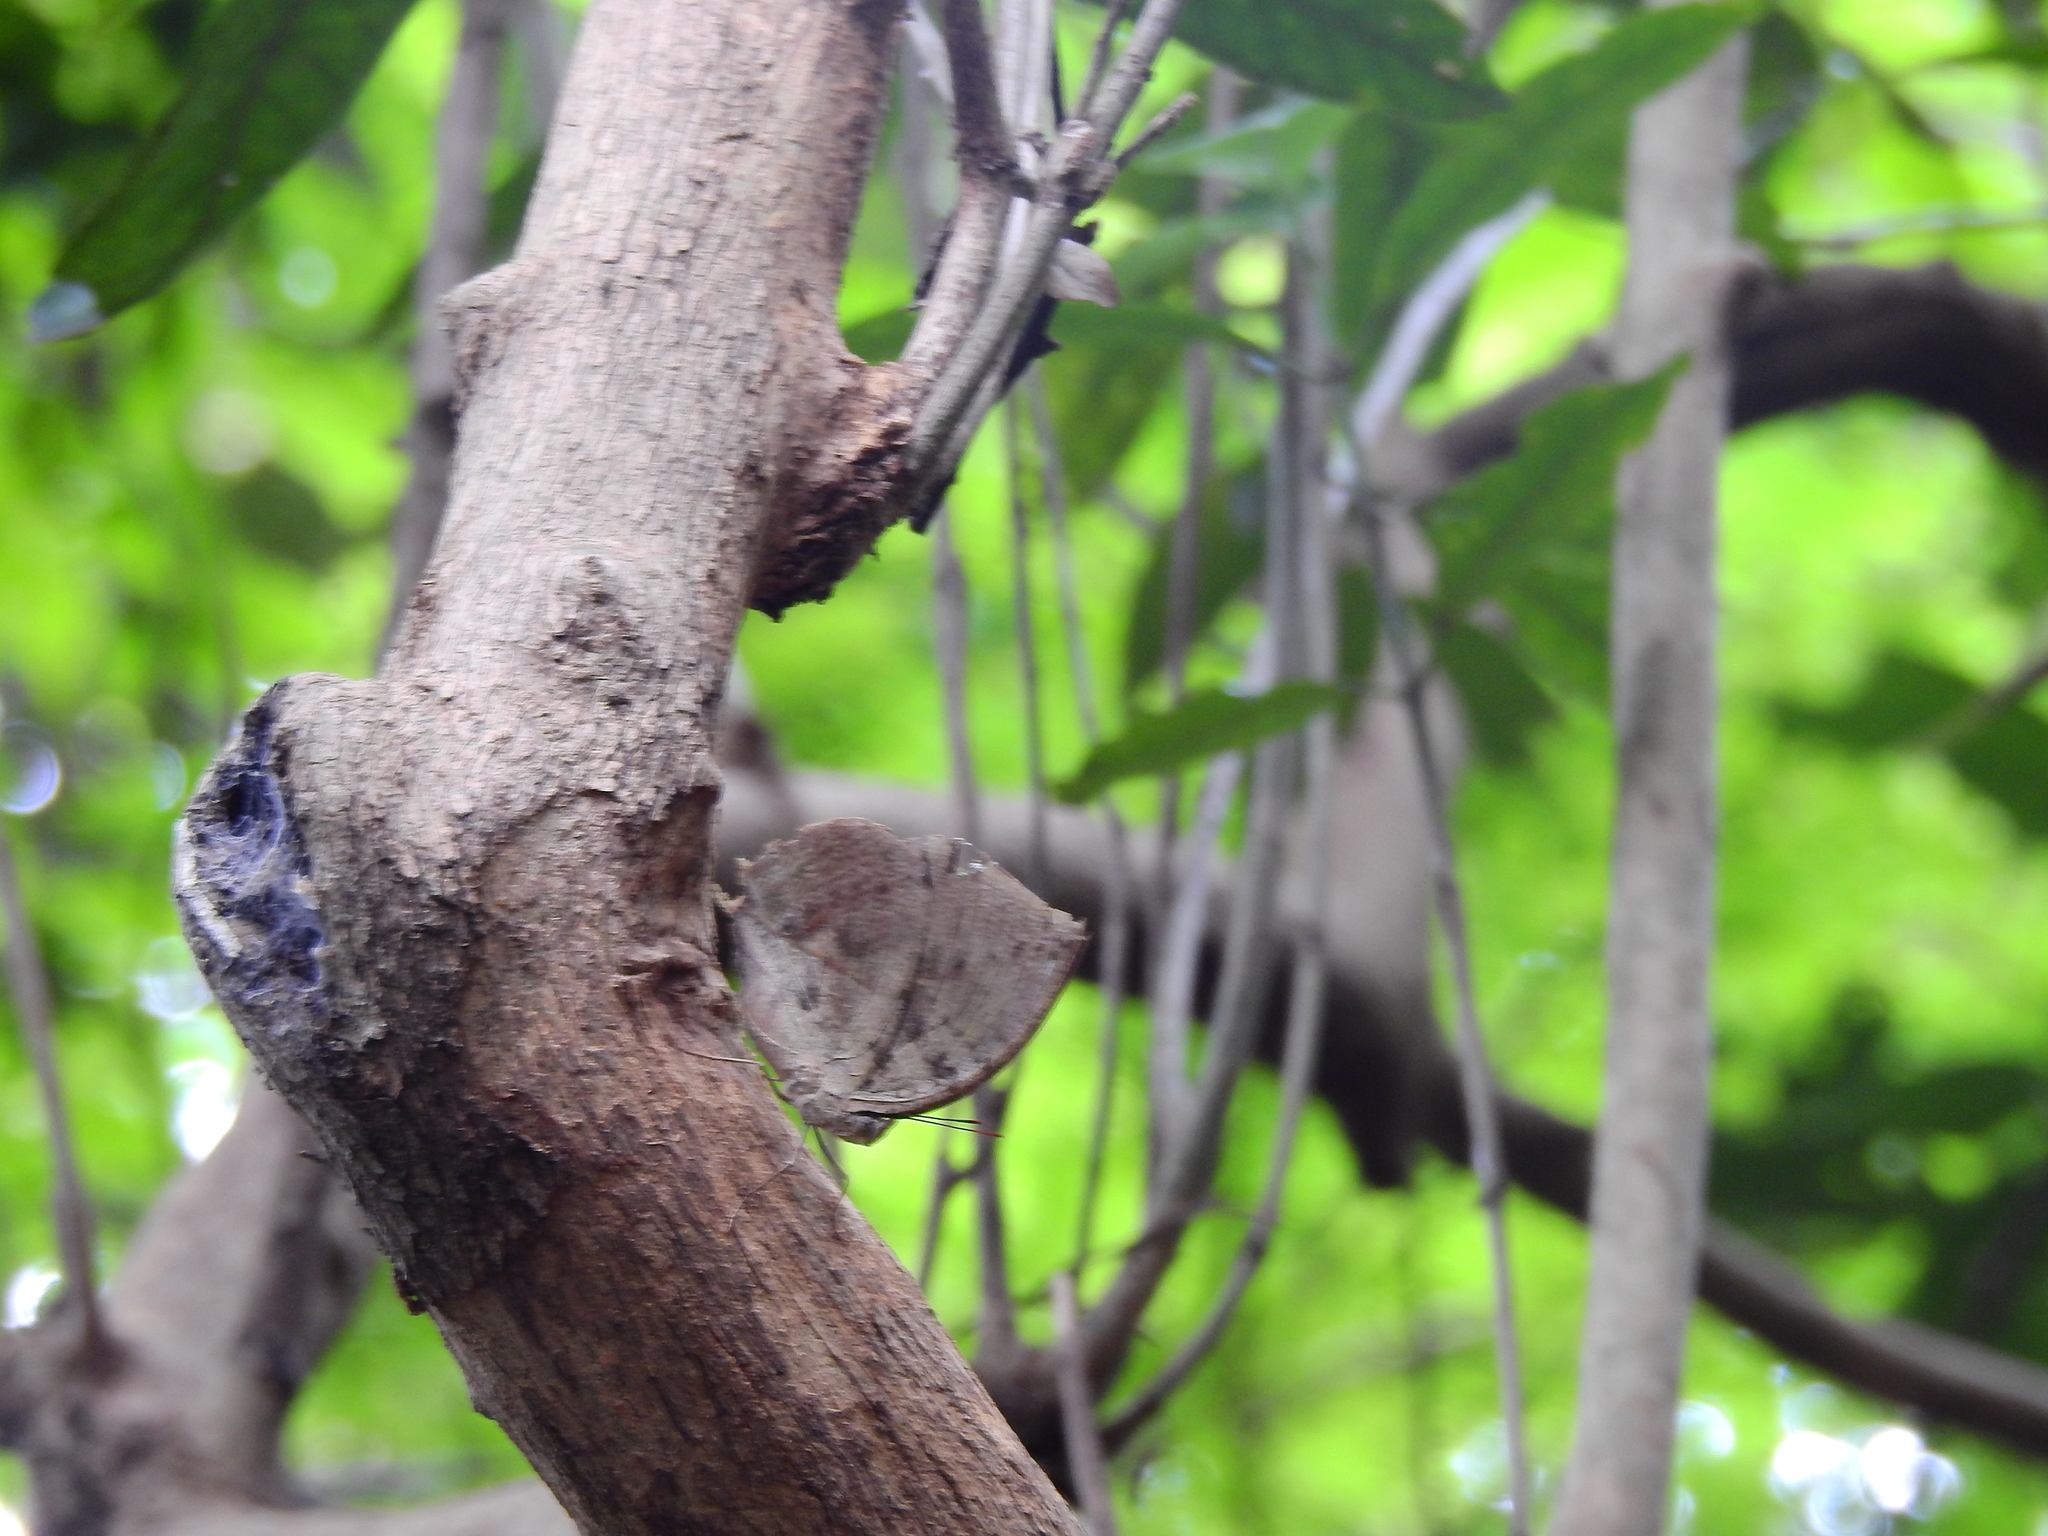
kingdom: Animalia
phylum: Arthropoda
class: Insecta
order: Lepidoptera
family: Nymphalidae
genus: Kallima
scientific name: Kallima horsfieldii
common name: Sahyadri blue oakleaf
